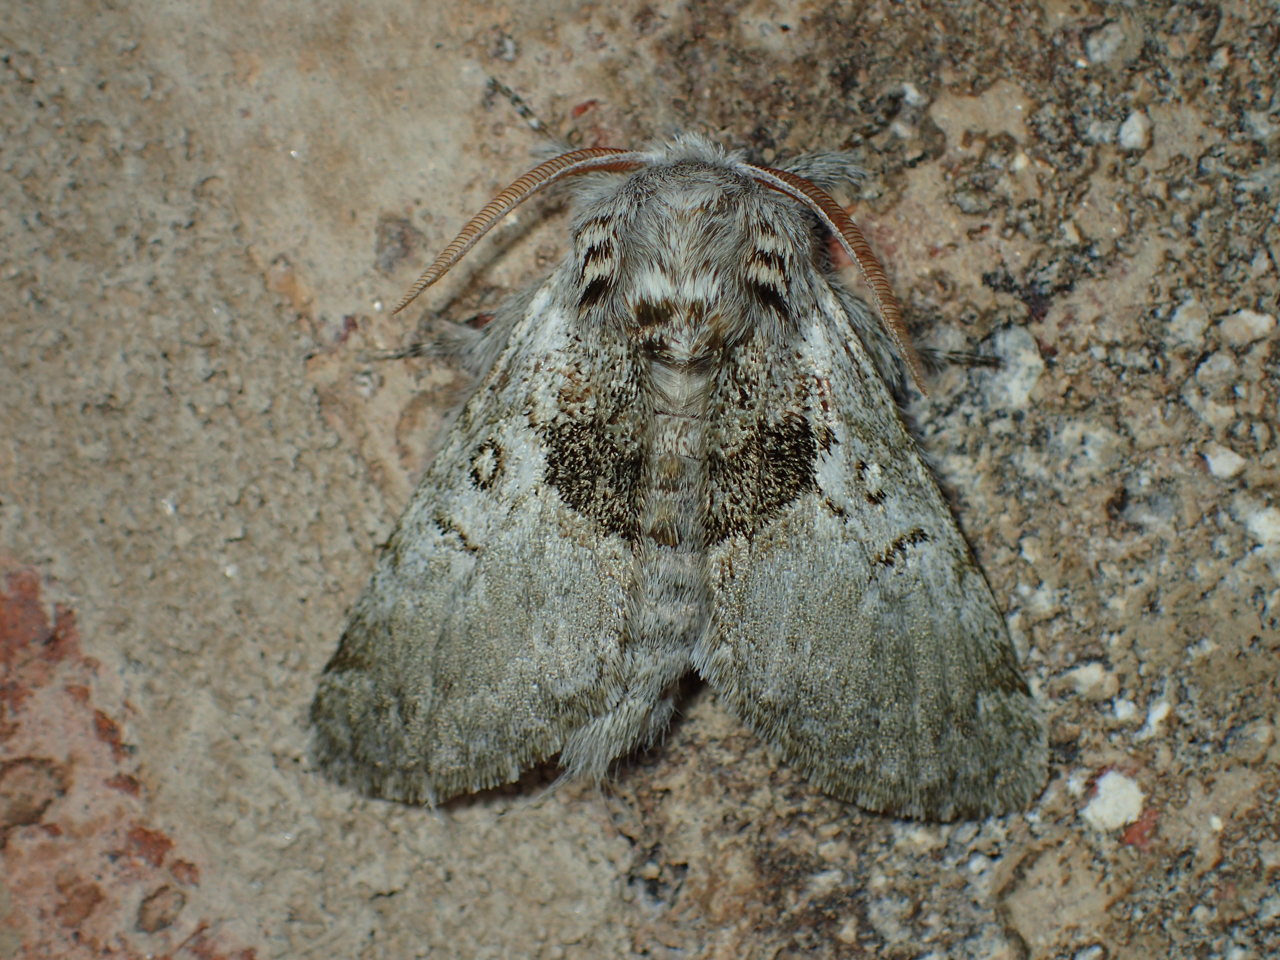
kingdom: Animalia
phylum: Arthropoda
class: Insecta
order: Lepidoptera
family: Noctuidae
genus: Colocasia
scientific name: Colocasia flavicornis
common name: Saddled yellowhorn
